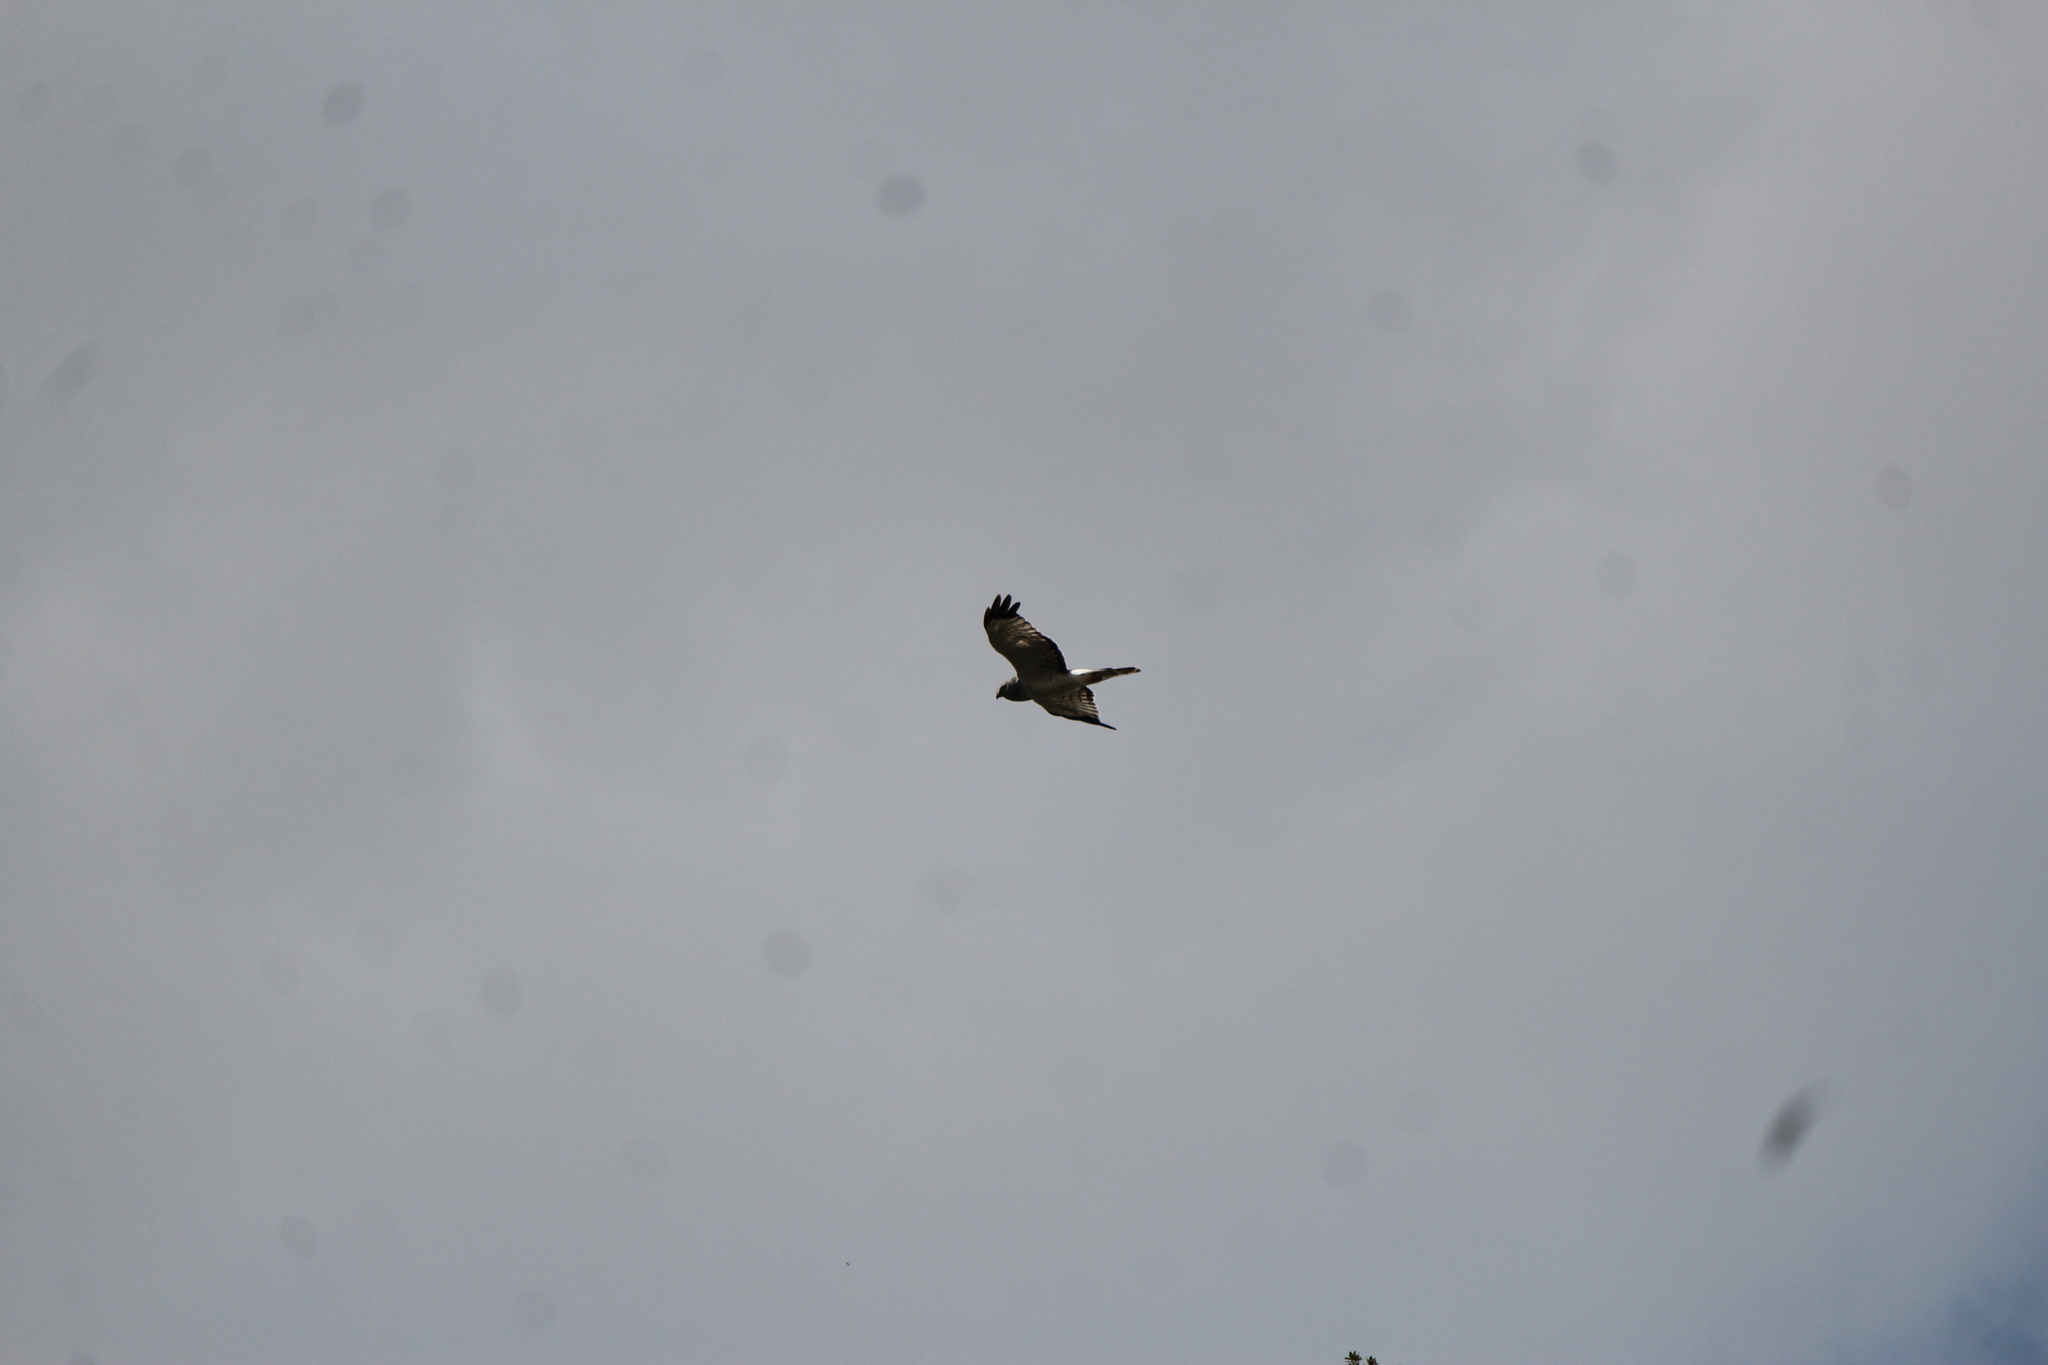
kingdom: Animalia
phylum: Chordata
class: Aves
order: Accipitriformes
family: Accipitridae
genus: Circus
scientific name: Circus cyaneus
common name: Hen harrier
